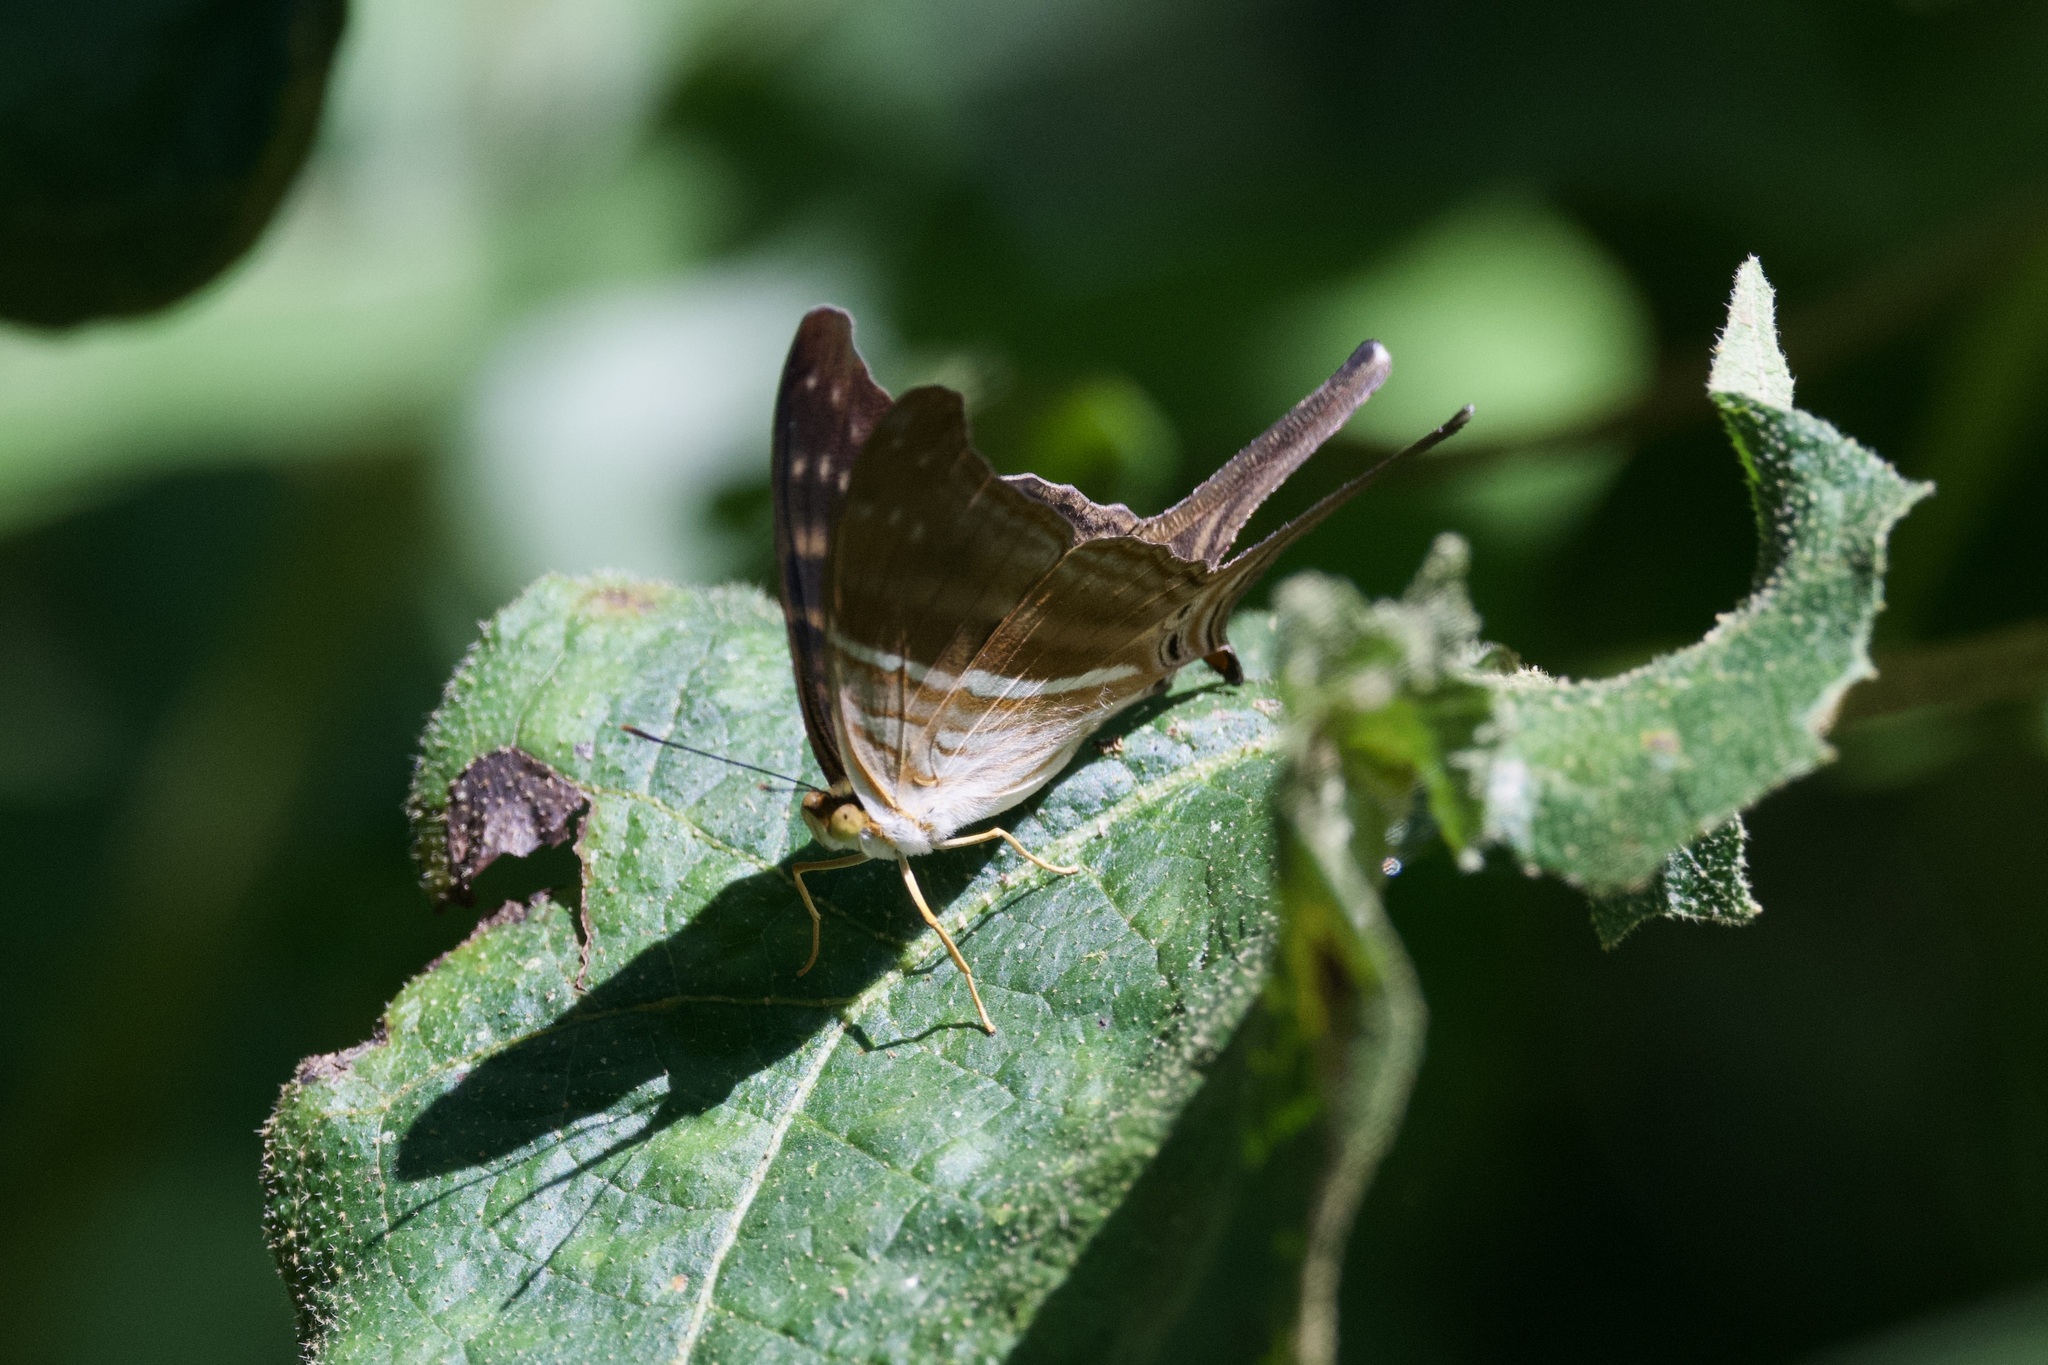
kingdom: Animalia
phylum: Arthropoda
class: Insecta
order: Lepidoptera
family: Nymphalidae
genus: Marpesia
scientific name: Marpesia chiron
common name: Many-banded daggerwing
